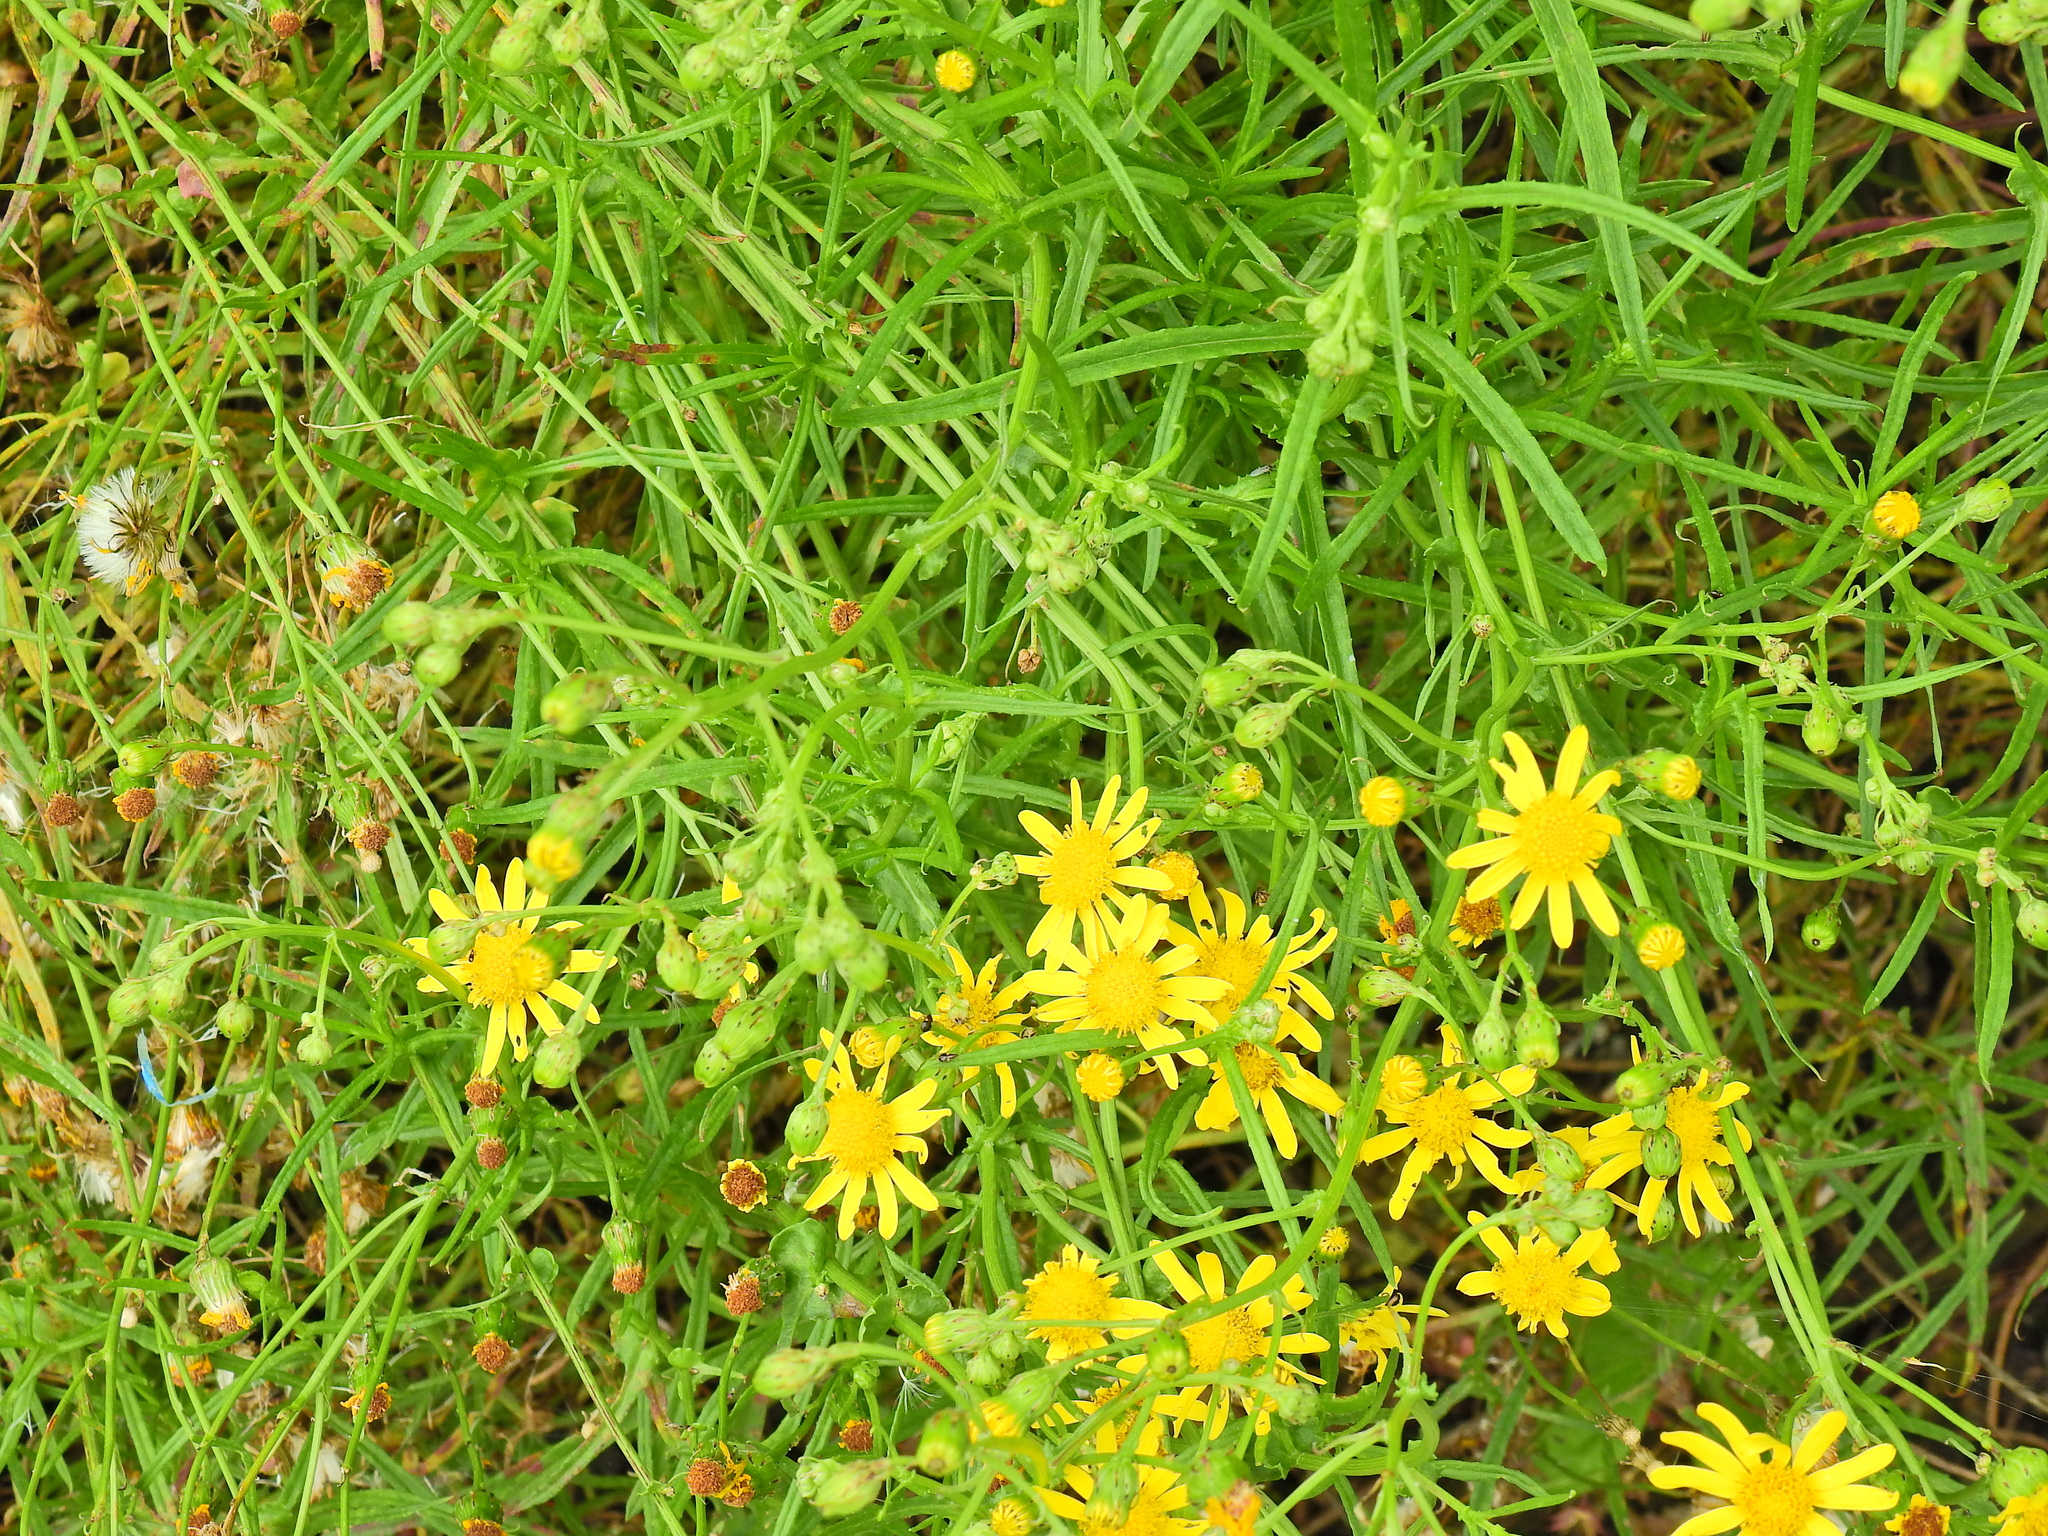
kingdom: Plantae
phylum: Tracheophyta
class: Magnoliopsida
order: Asterales
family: Asteraceae
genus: Senecio
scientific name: Senecio inaequidens
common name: Narrow-leaved ragwort
